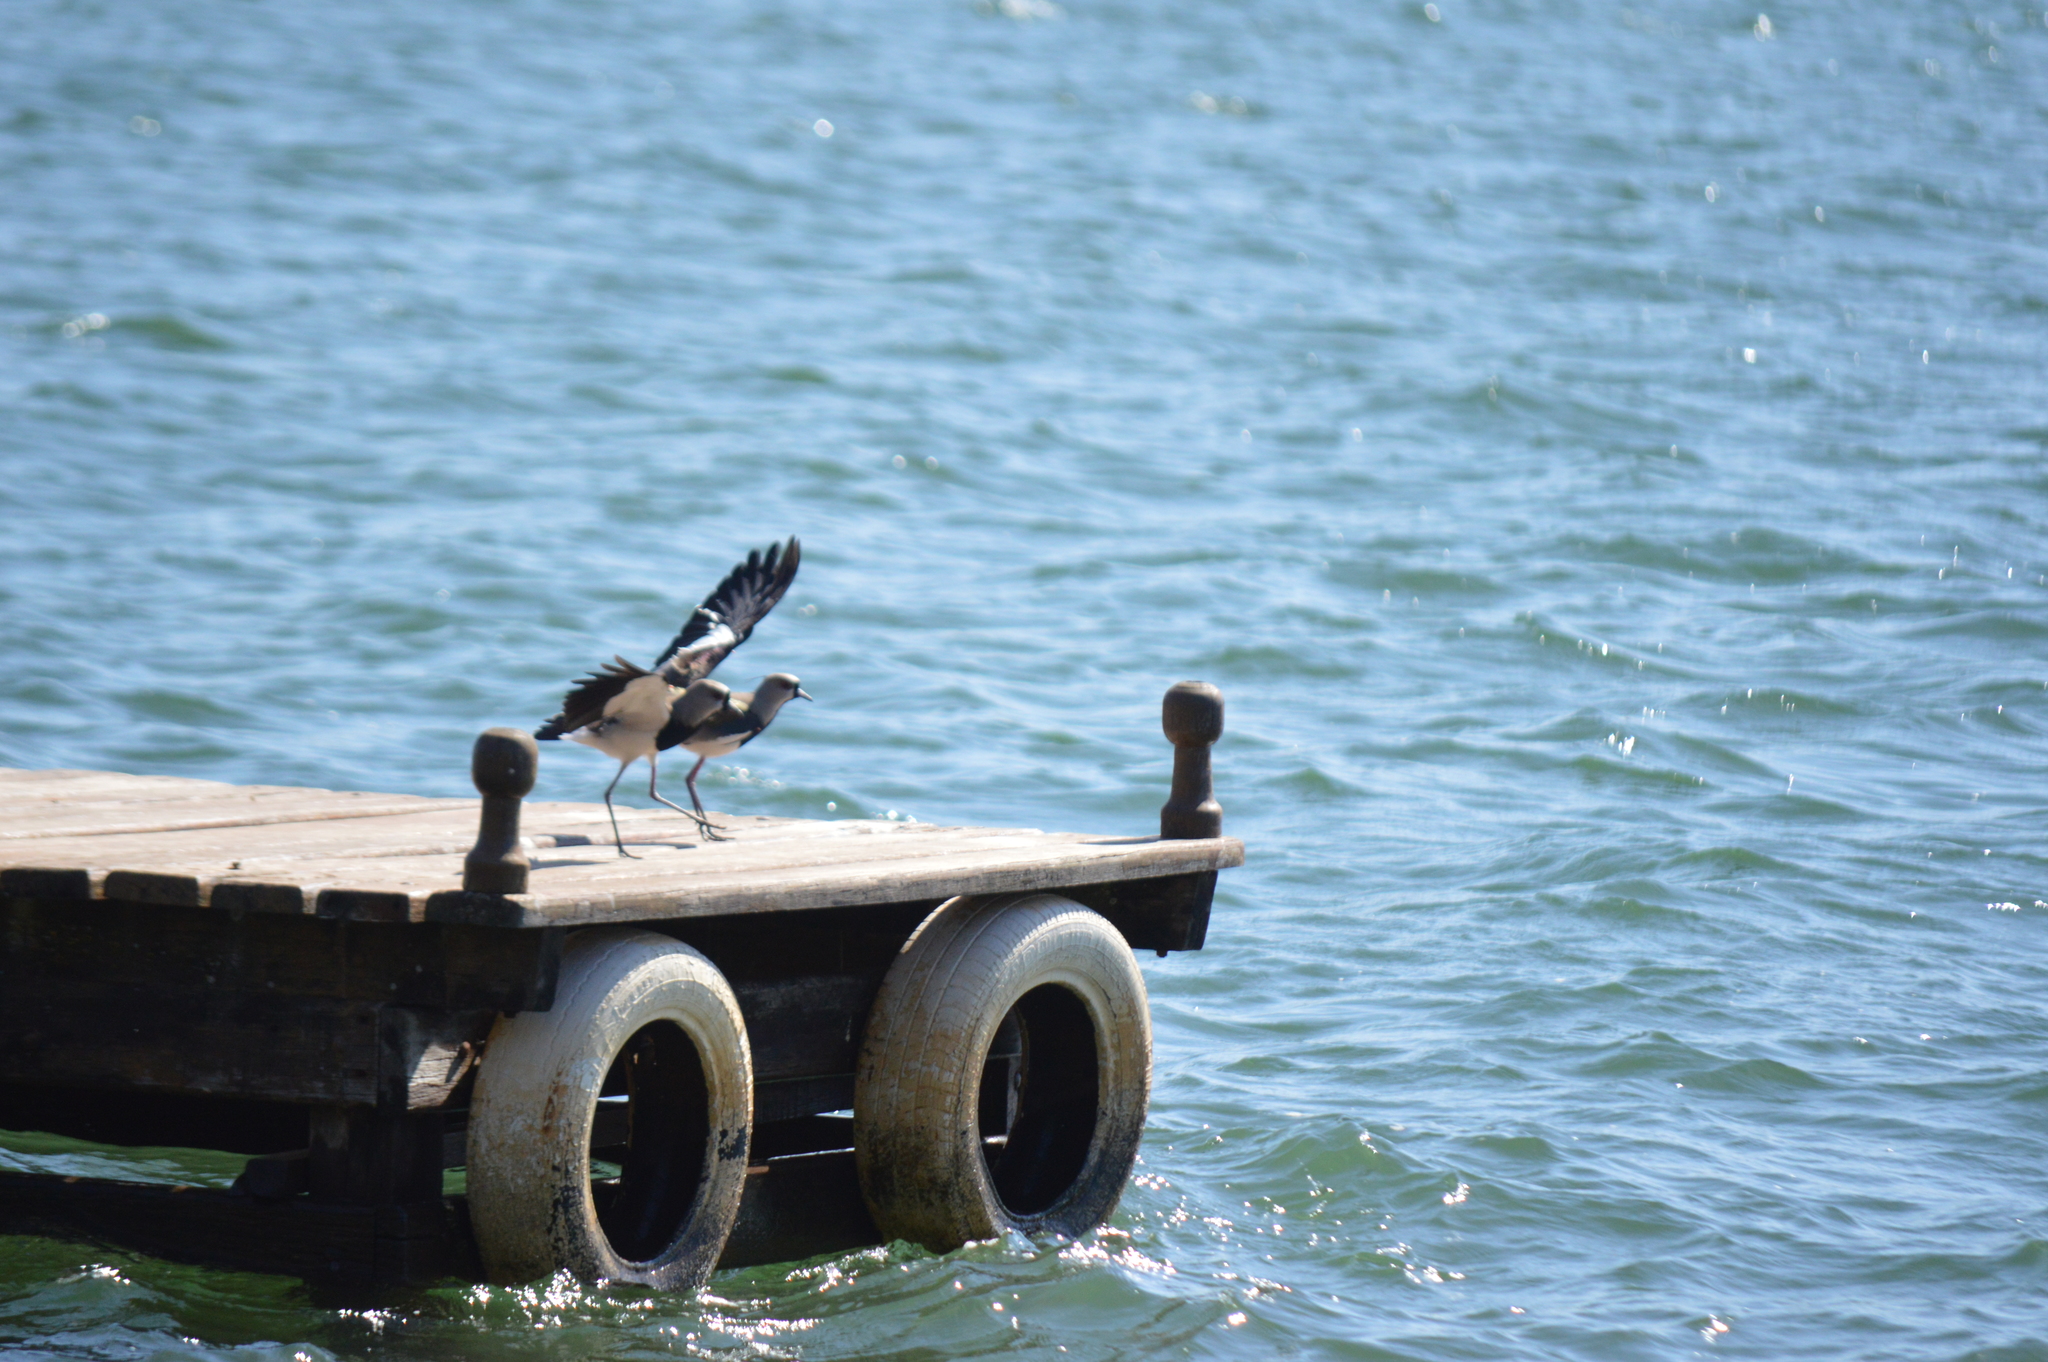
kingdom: Animalia
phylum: Chordata
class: Aves
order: Charadriiformes
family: Charadriidae
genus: Vanellus
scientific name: Vanellus chilensis
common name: Southern lapwing
